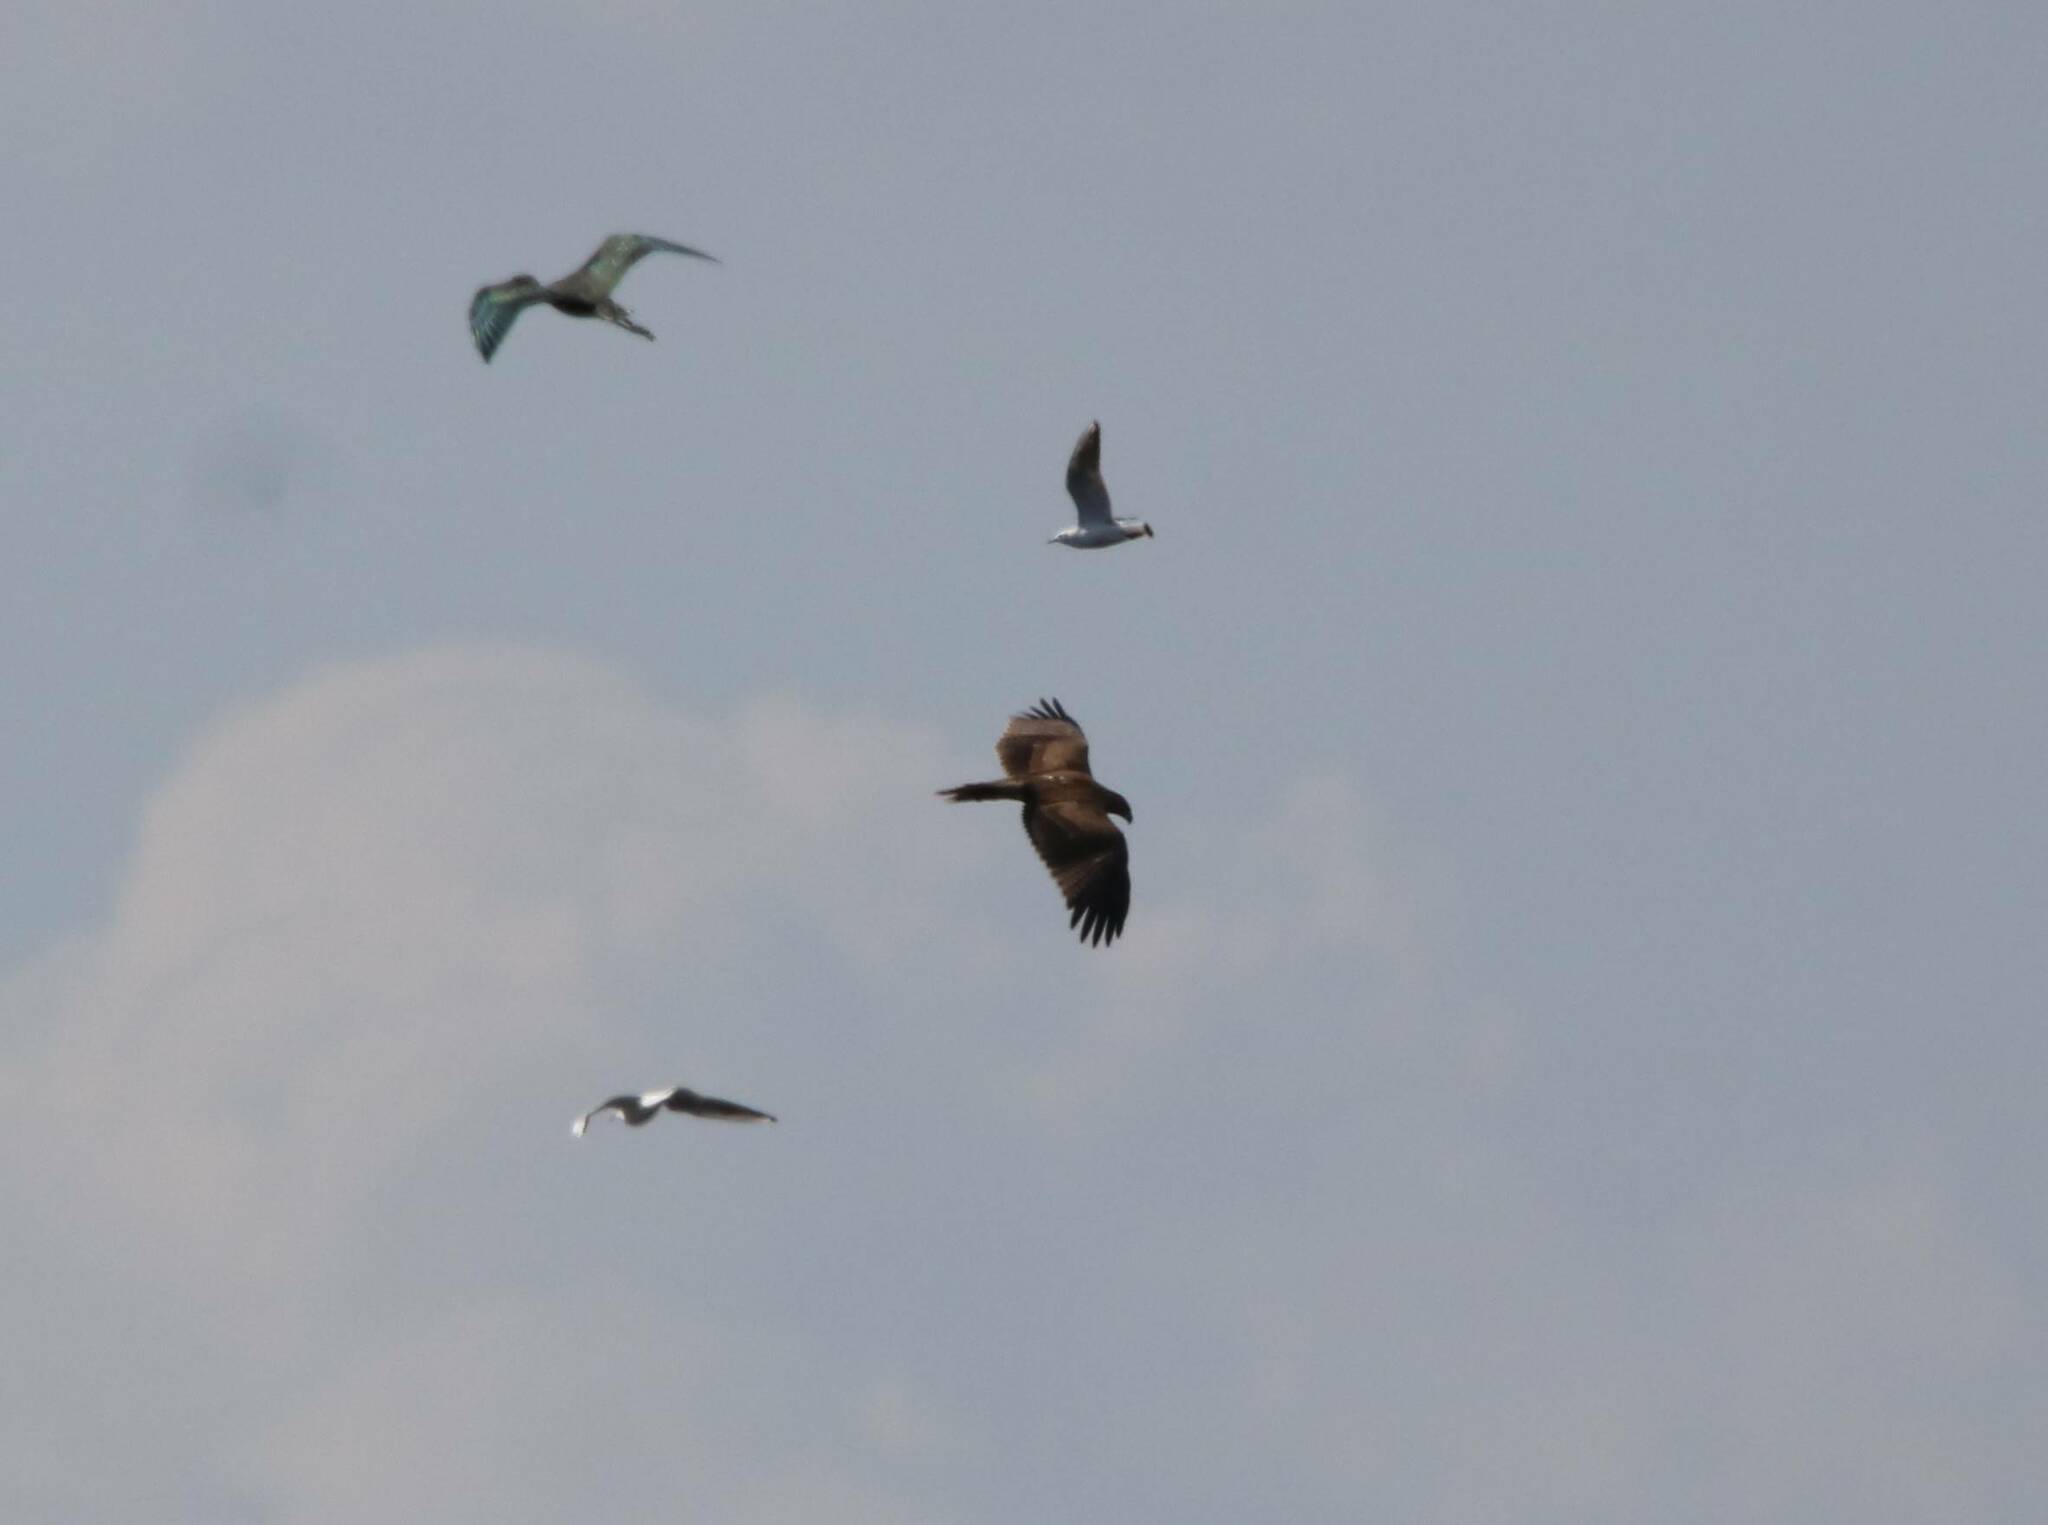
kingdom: Animalia
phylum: Chordata
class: Aves
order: Accipitriformes
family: Accipitridae
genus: Aquila
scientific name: Aquila fasciata
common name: Bonelli's eagle
